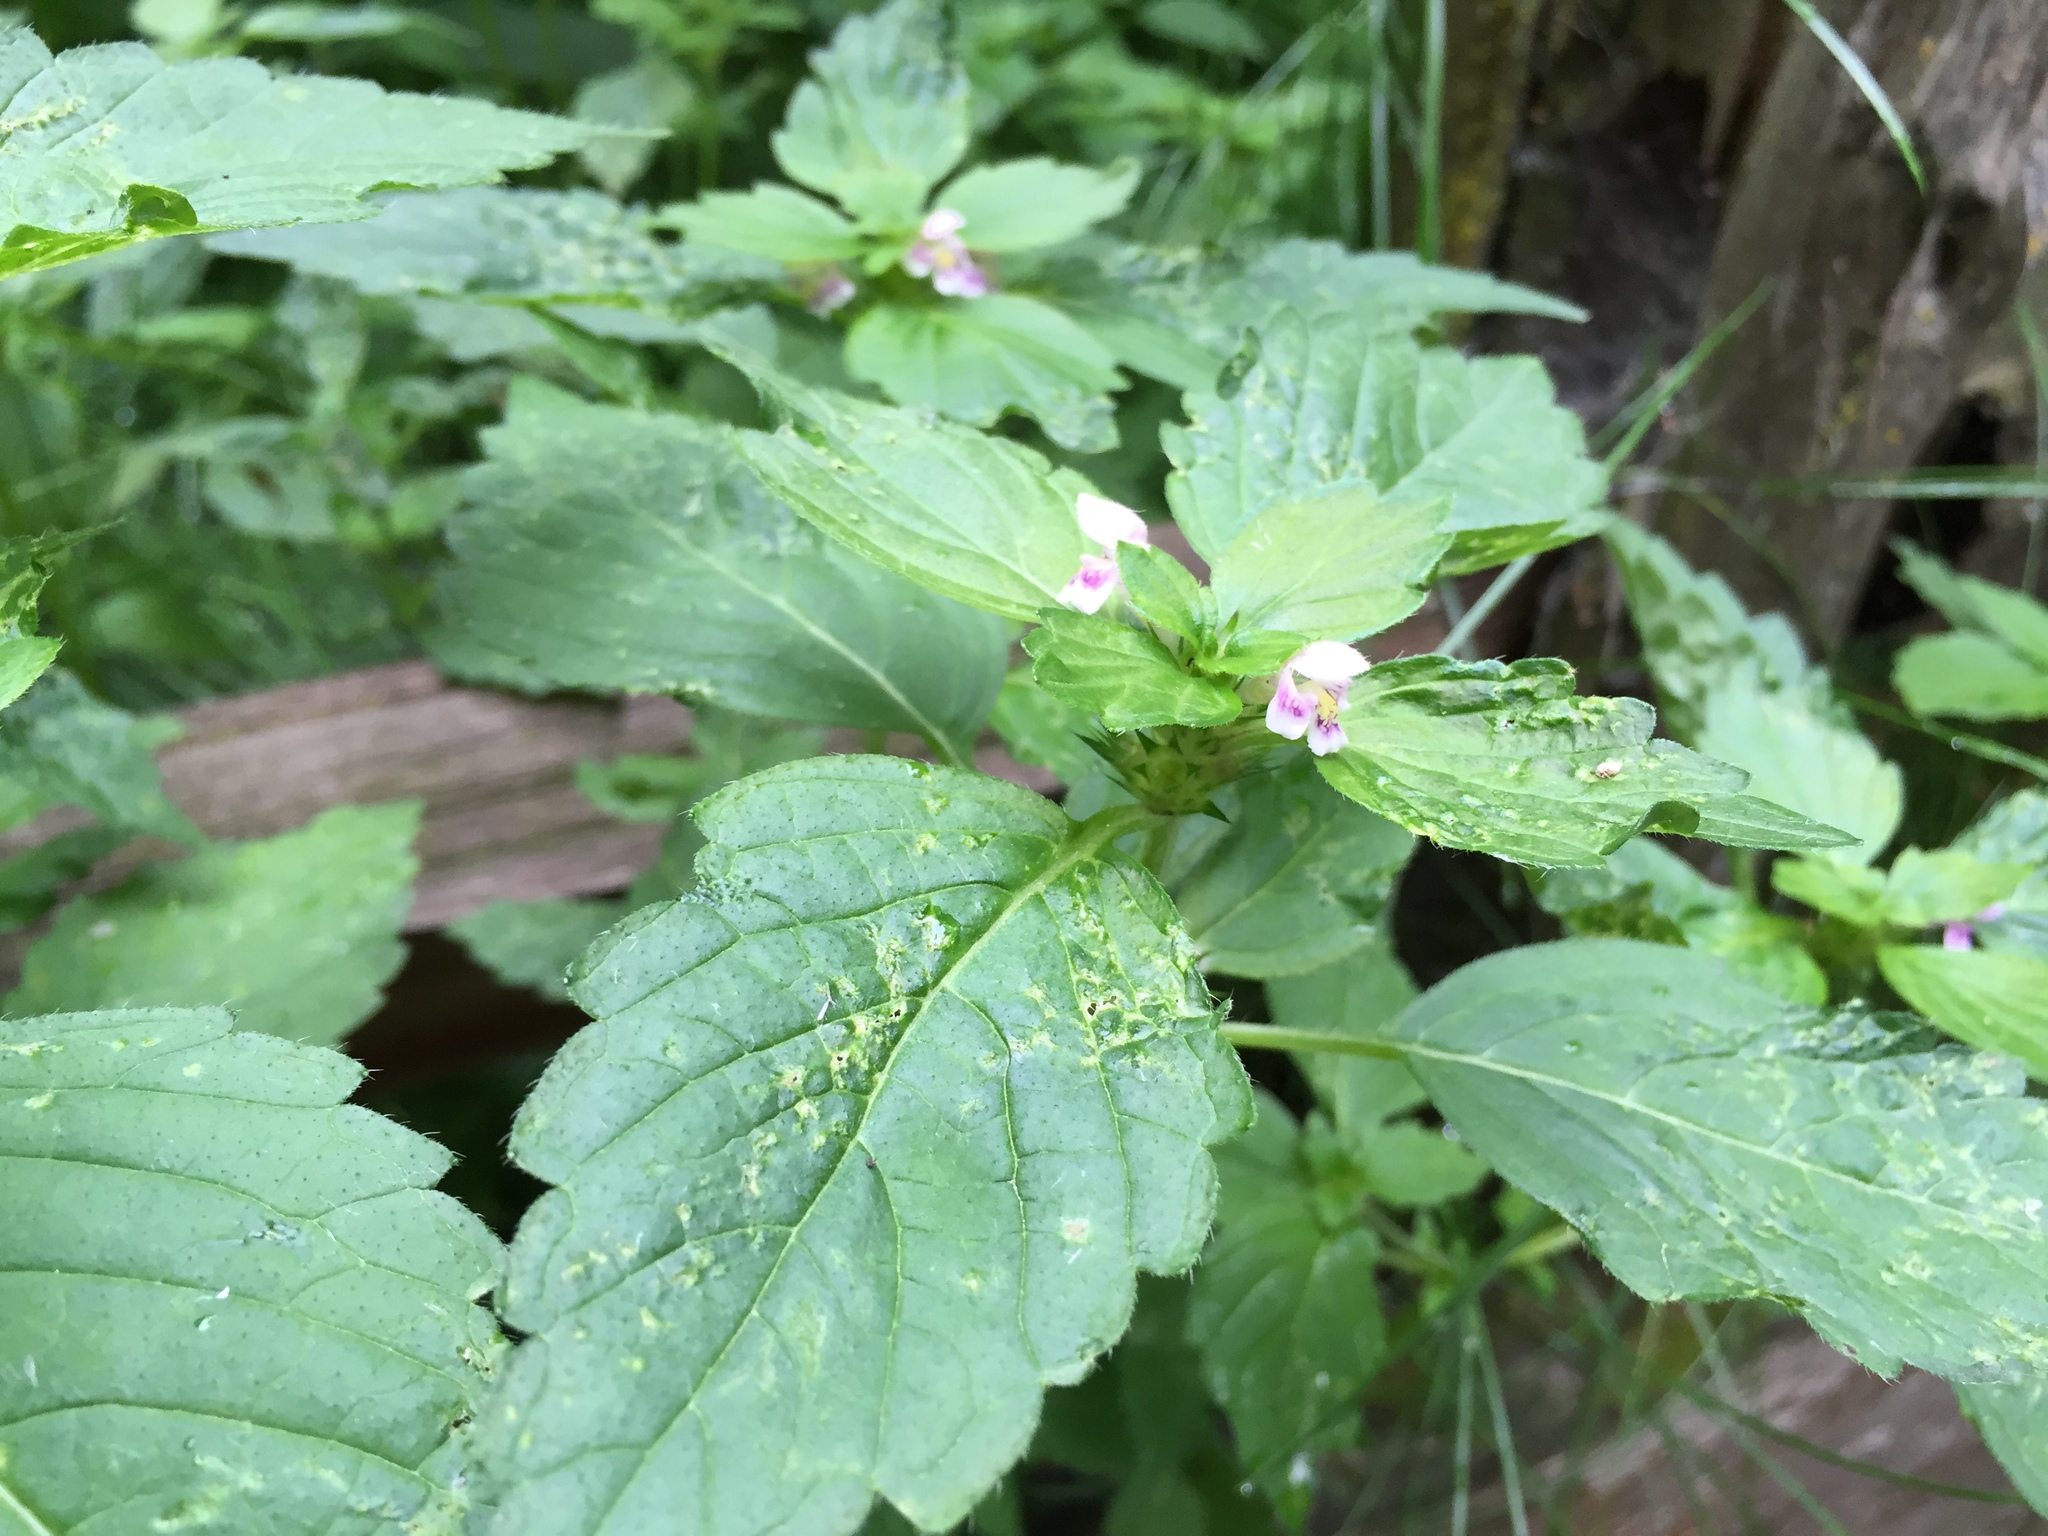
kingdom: Plantae
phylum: Tracheophyta
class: Magnoliopsida
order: Lamiales
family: Lamiaceae
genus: Galeopsis
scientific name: Galeopsis tetrahit
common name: Common hemp-nettle
